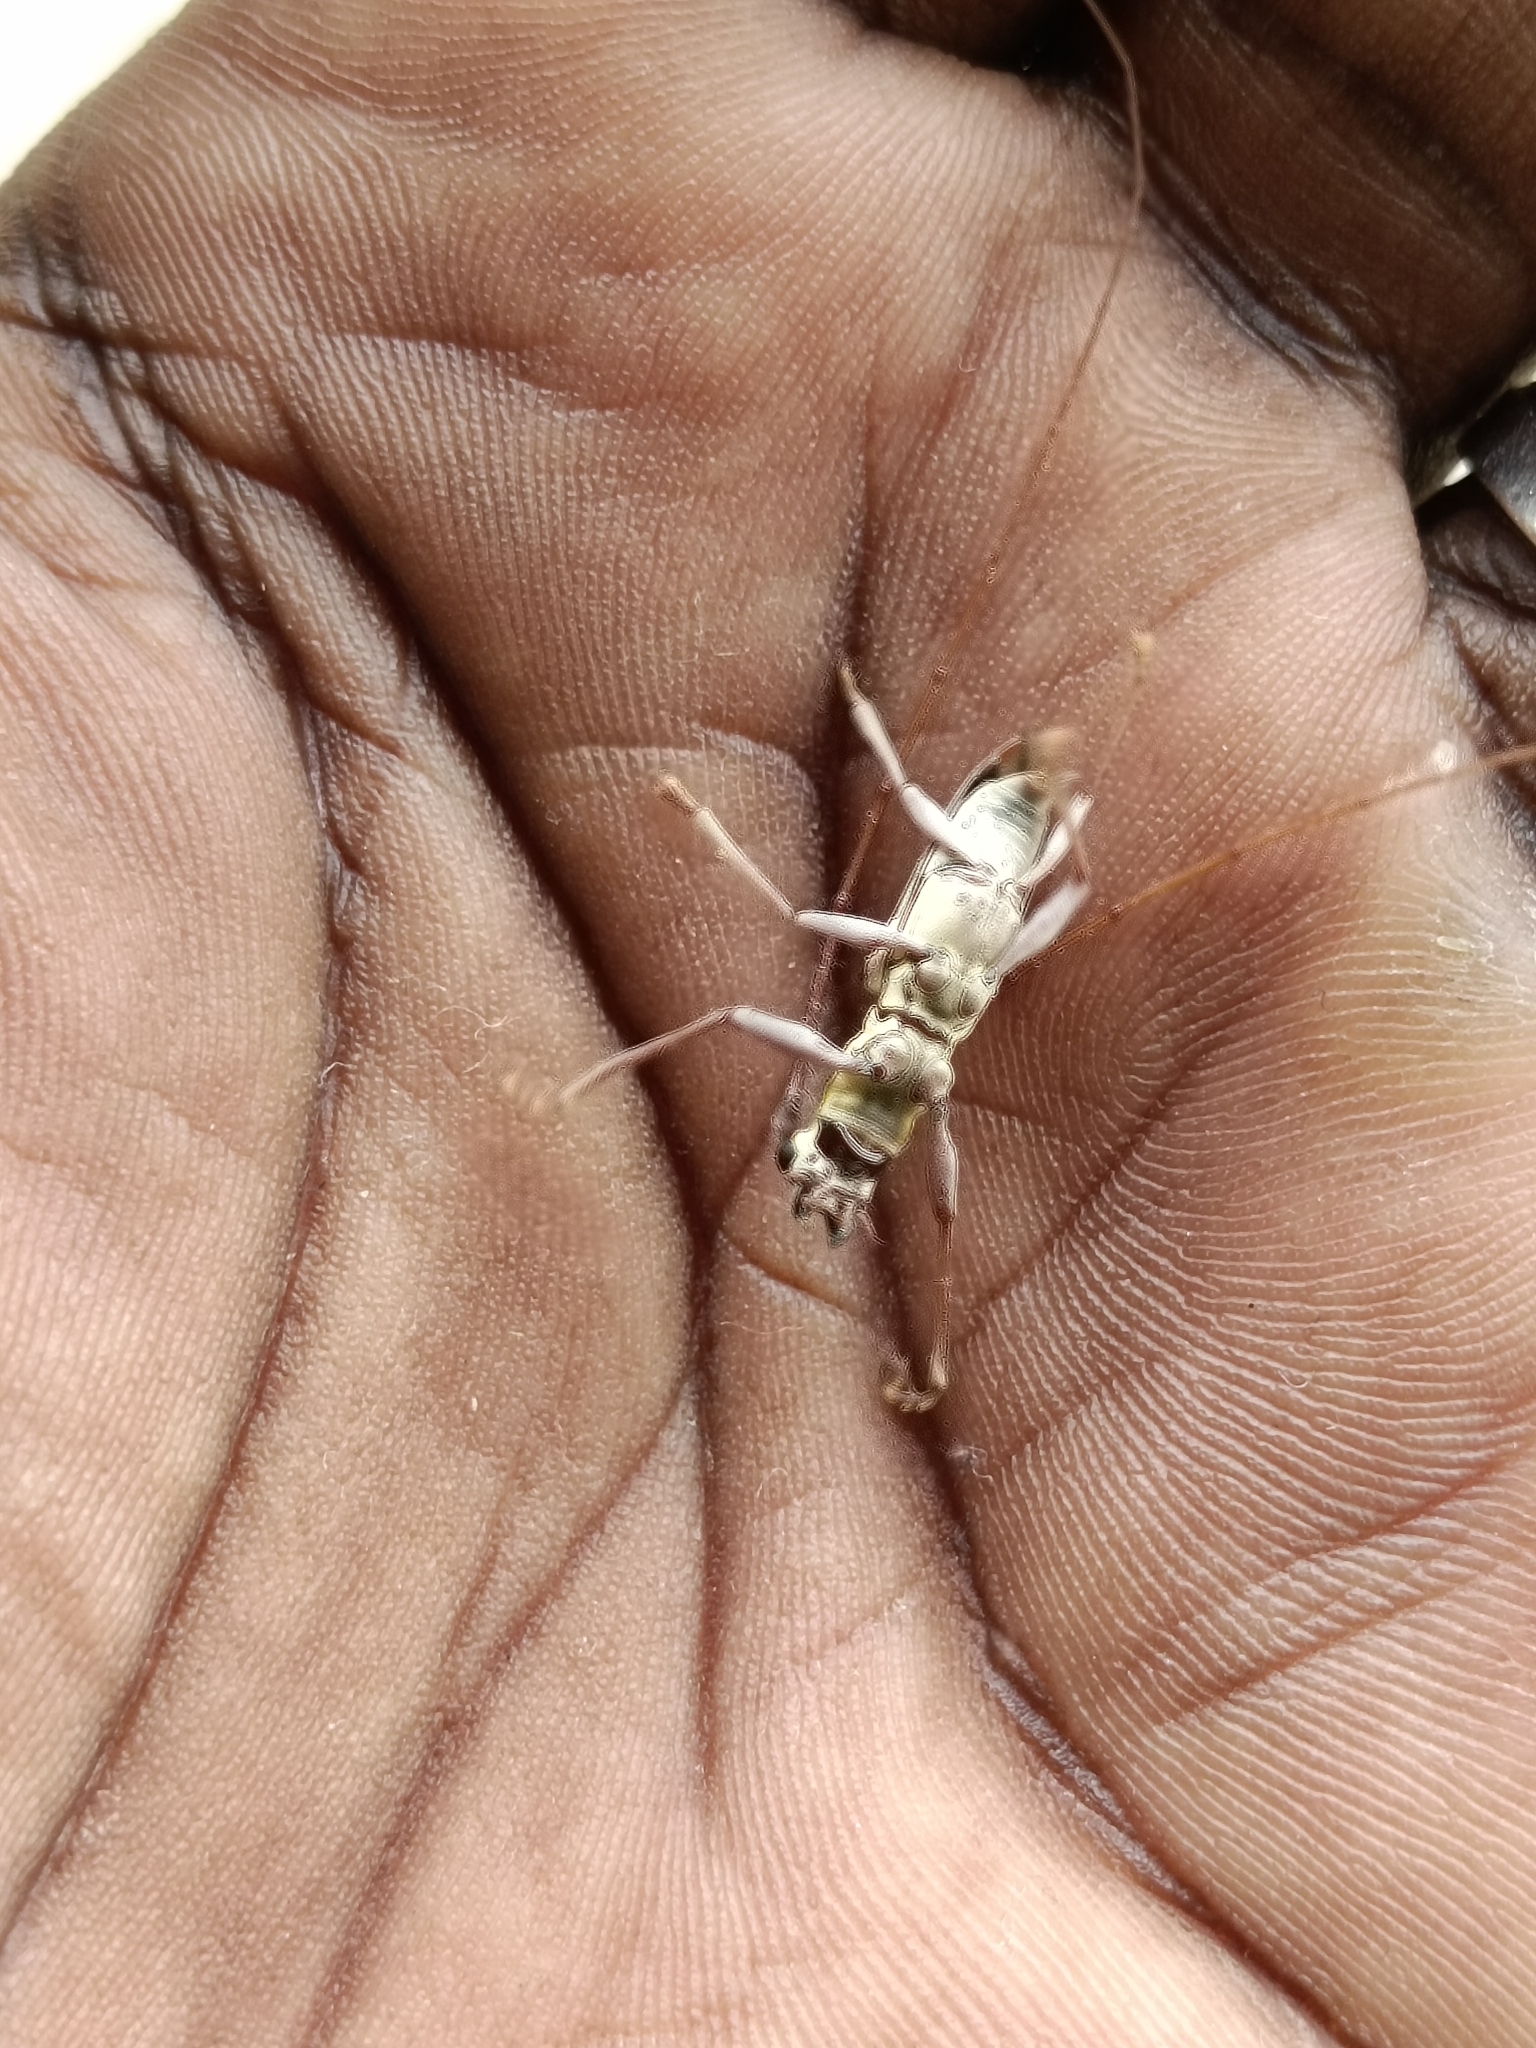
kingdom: Animalia
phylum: Arthropoda
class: Insecta
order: Coleoptera
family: Cerambycidae
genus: Olenecamptus
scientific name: Olenecamptus bilobus
